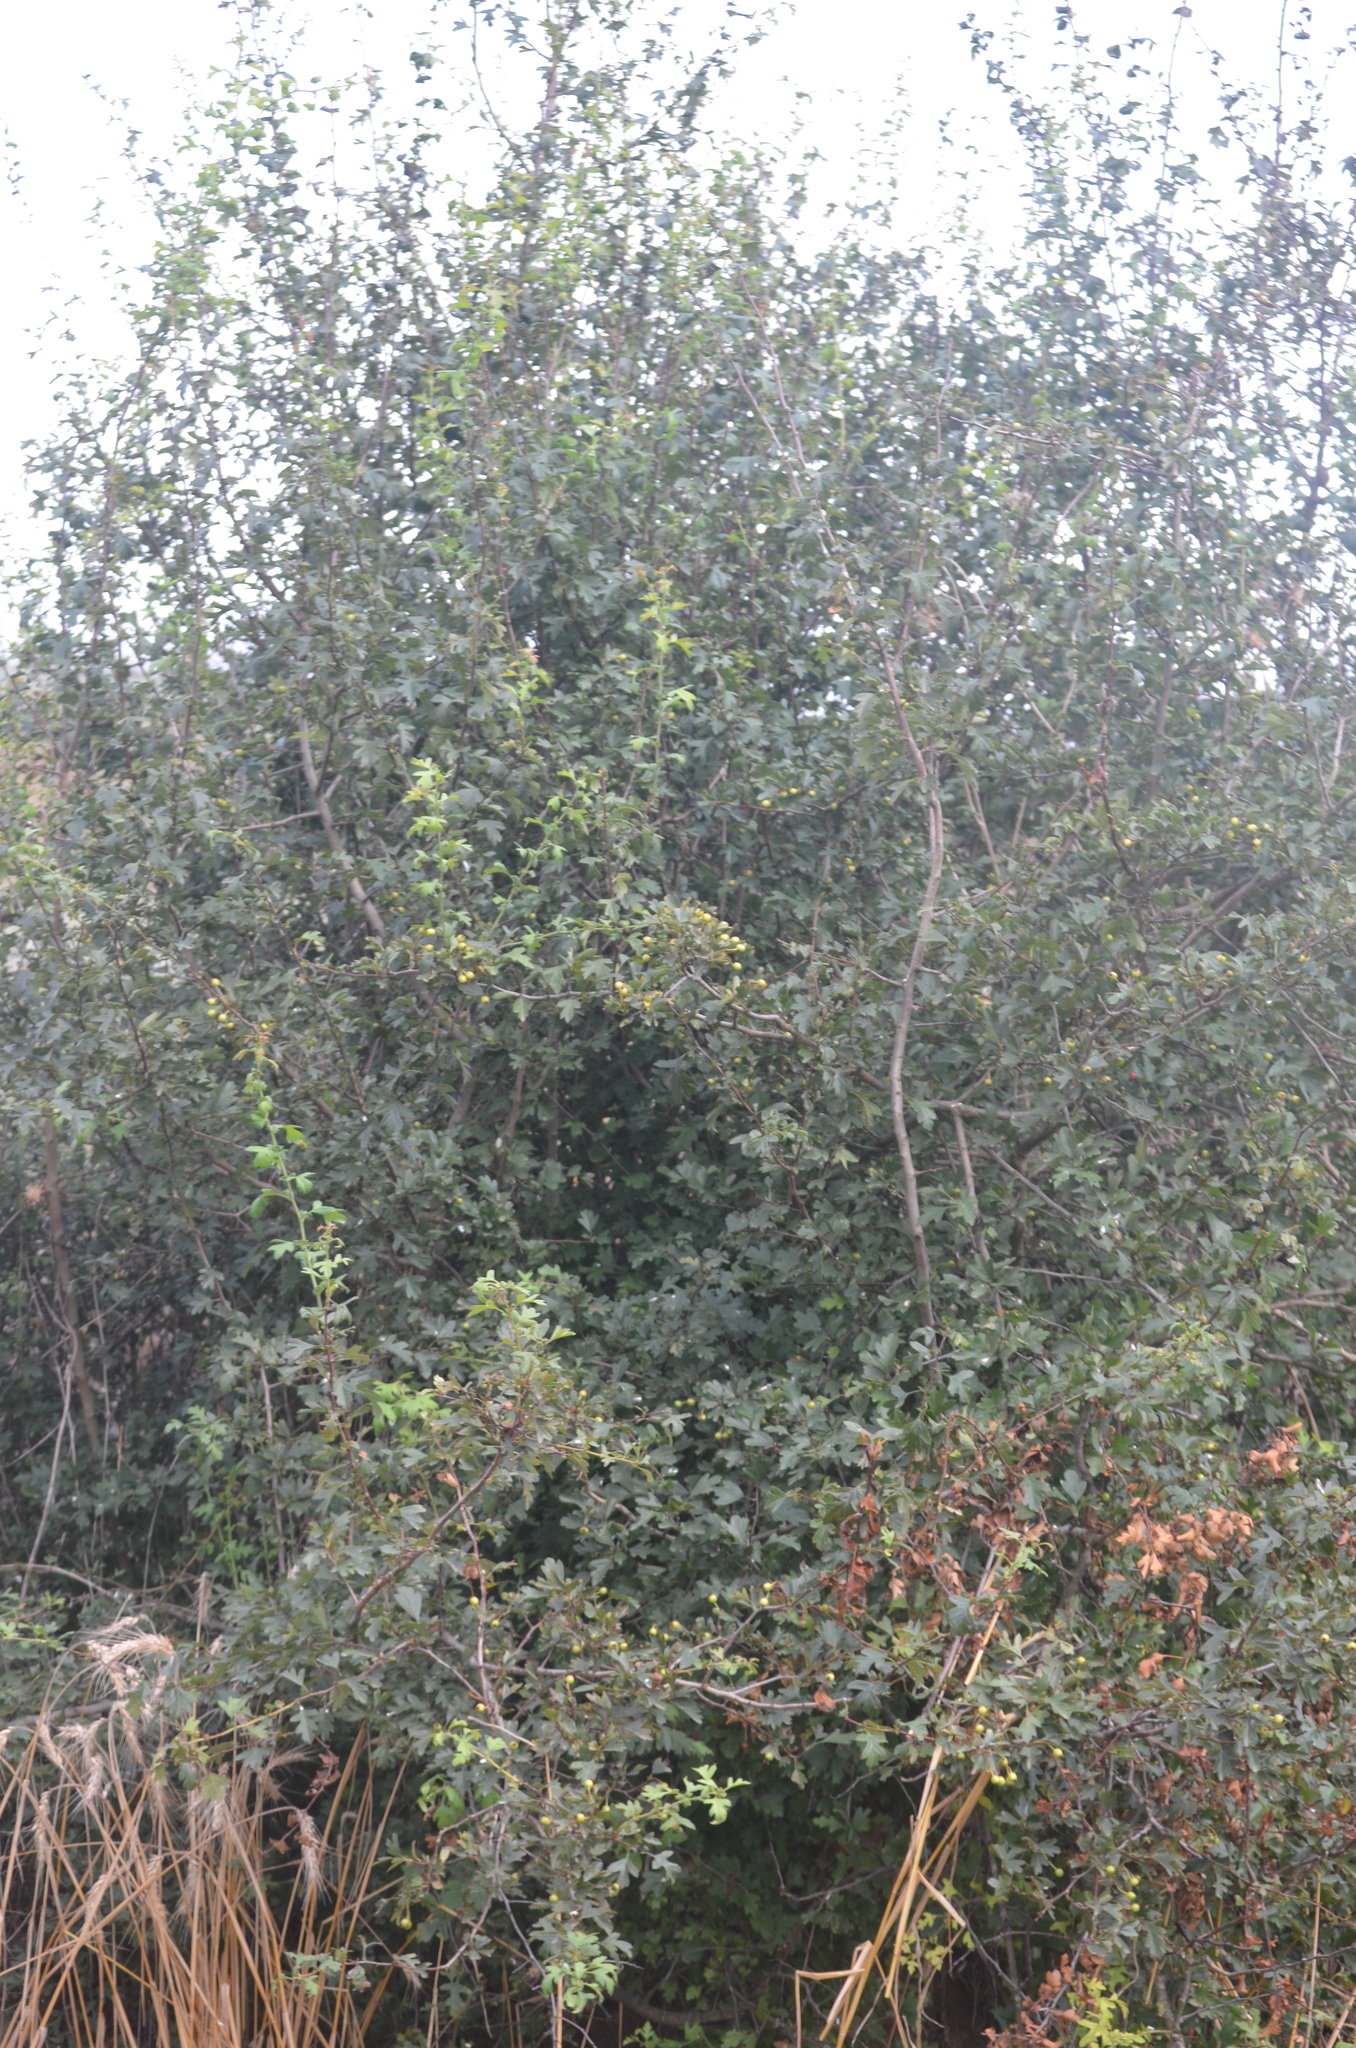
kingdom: Plantae
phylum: Tracheophyta
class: Magnoliopsida
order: Rosales
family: Rosaceae
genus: Crataegus
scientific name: Crataegus monogyna
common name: Hawthorn
